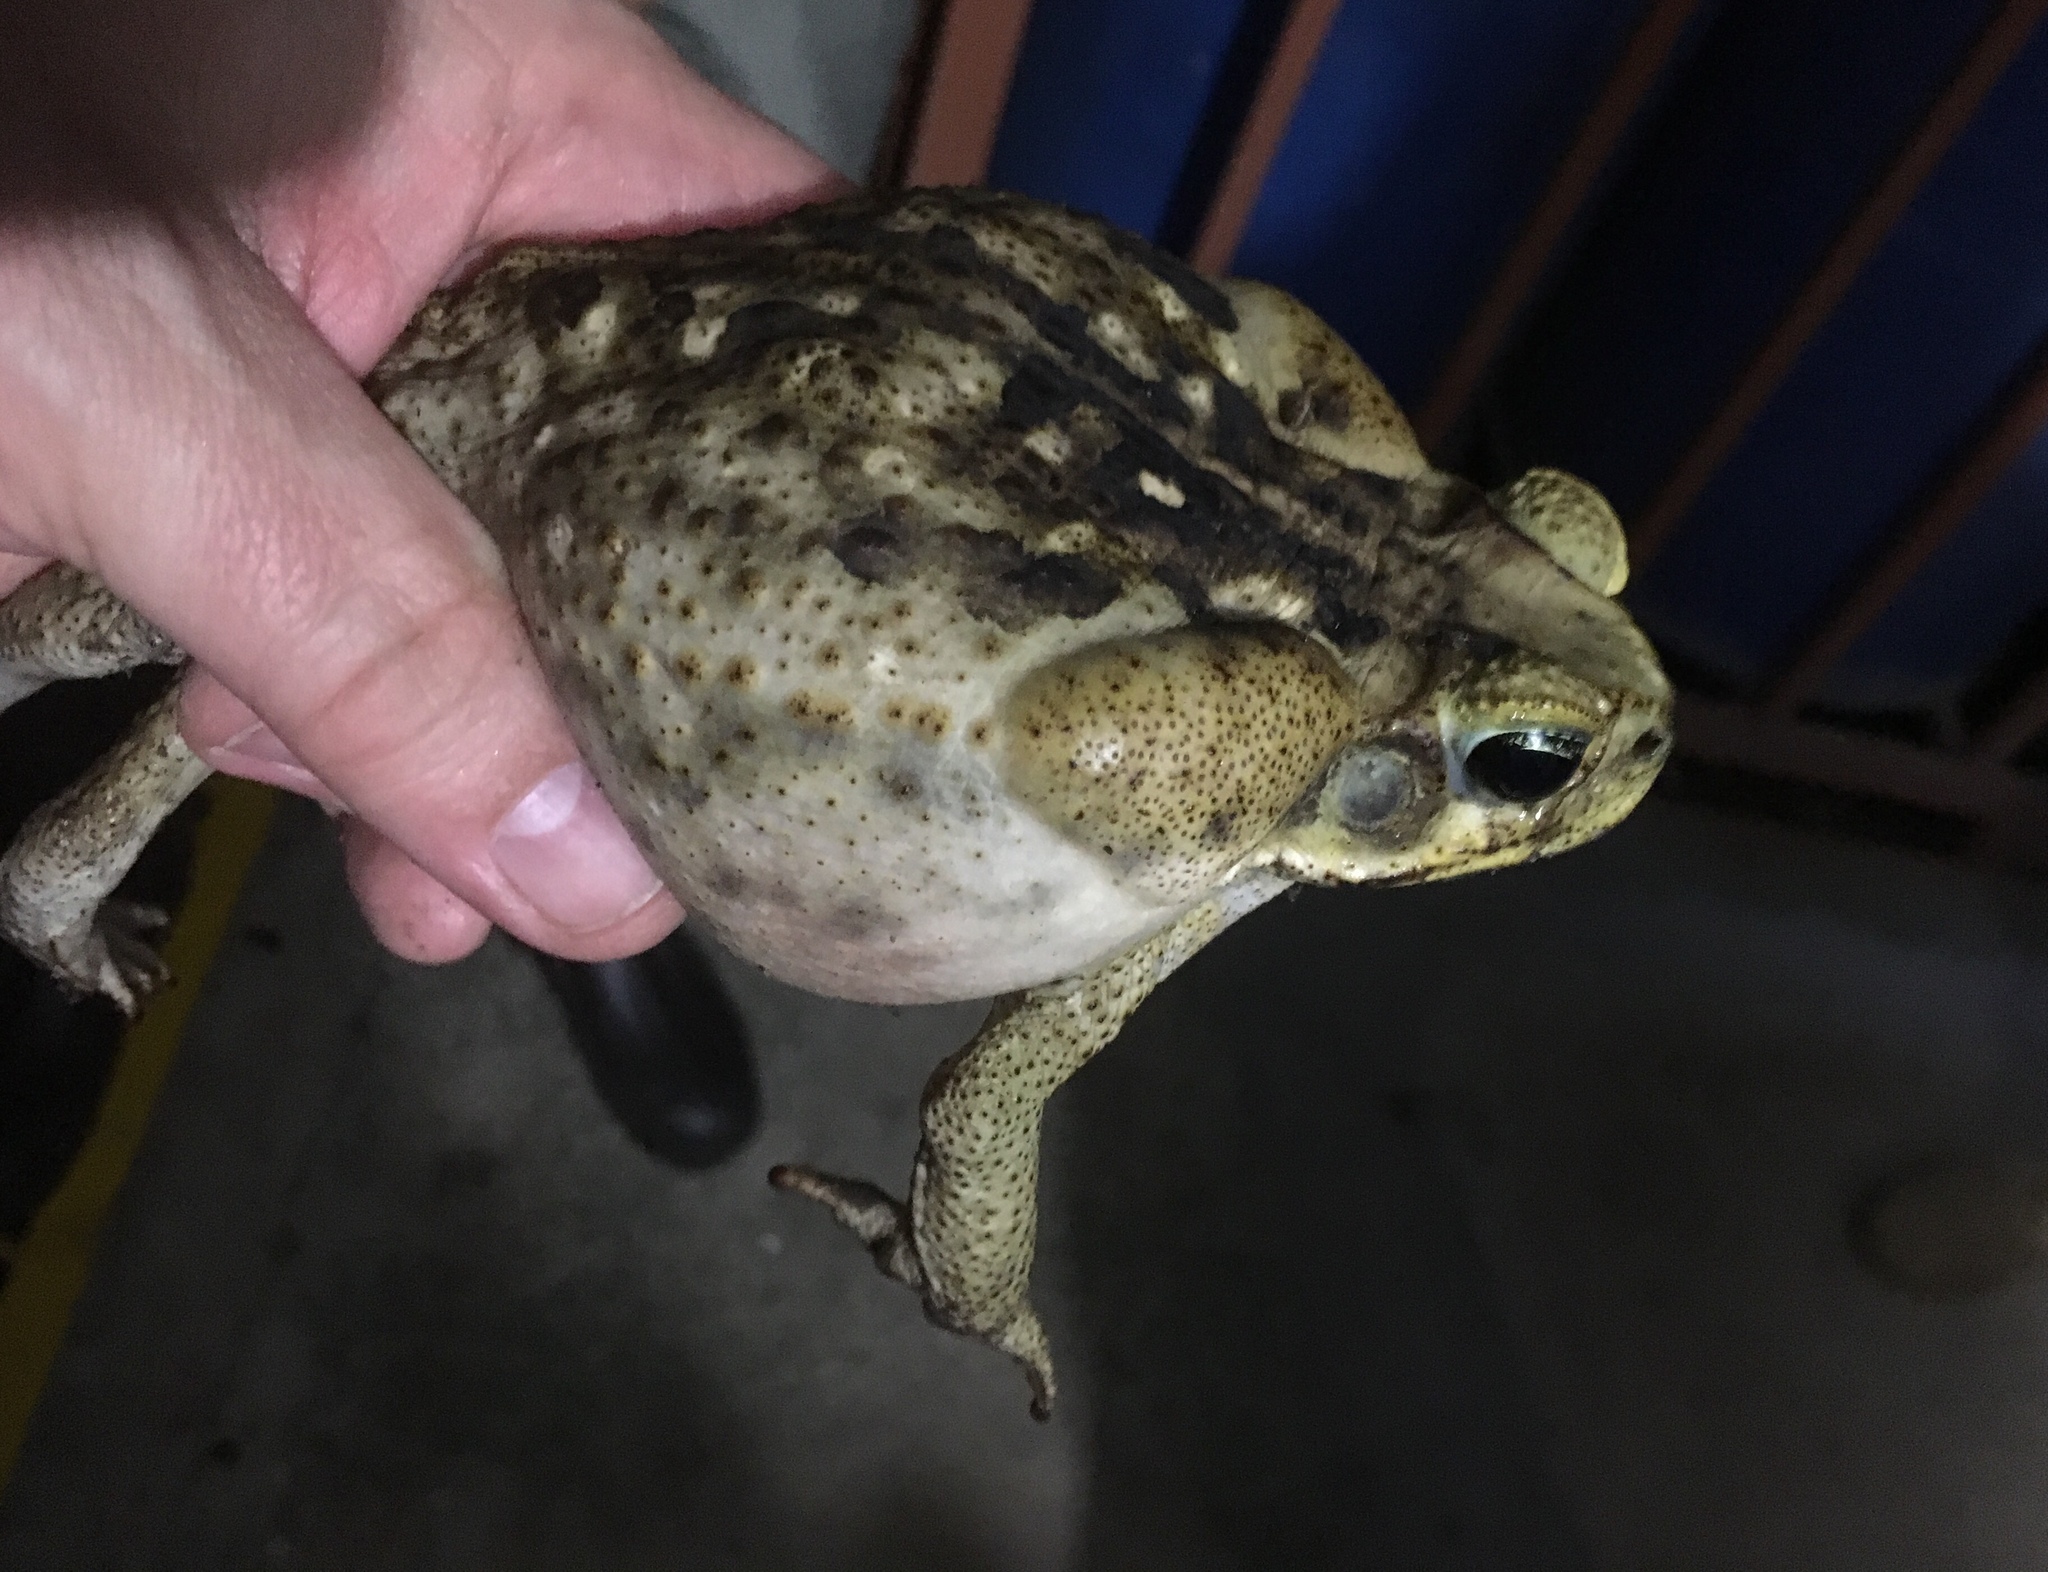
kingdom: Animalia
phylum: Chordata
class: Amphibia
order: Anura
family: Bufonidae
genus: Rhinella
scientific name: Rhinella horribilis
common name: Mesoamerican cane toad
